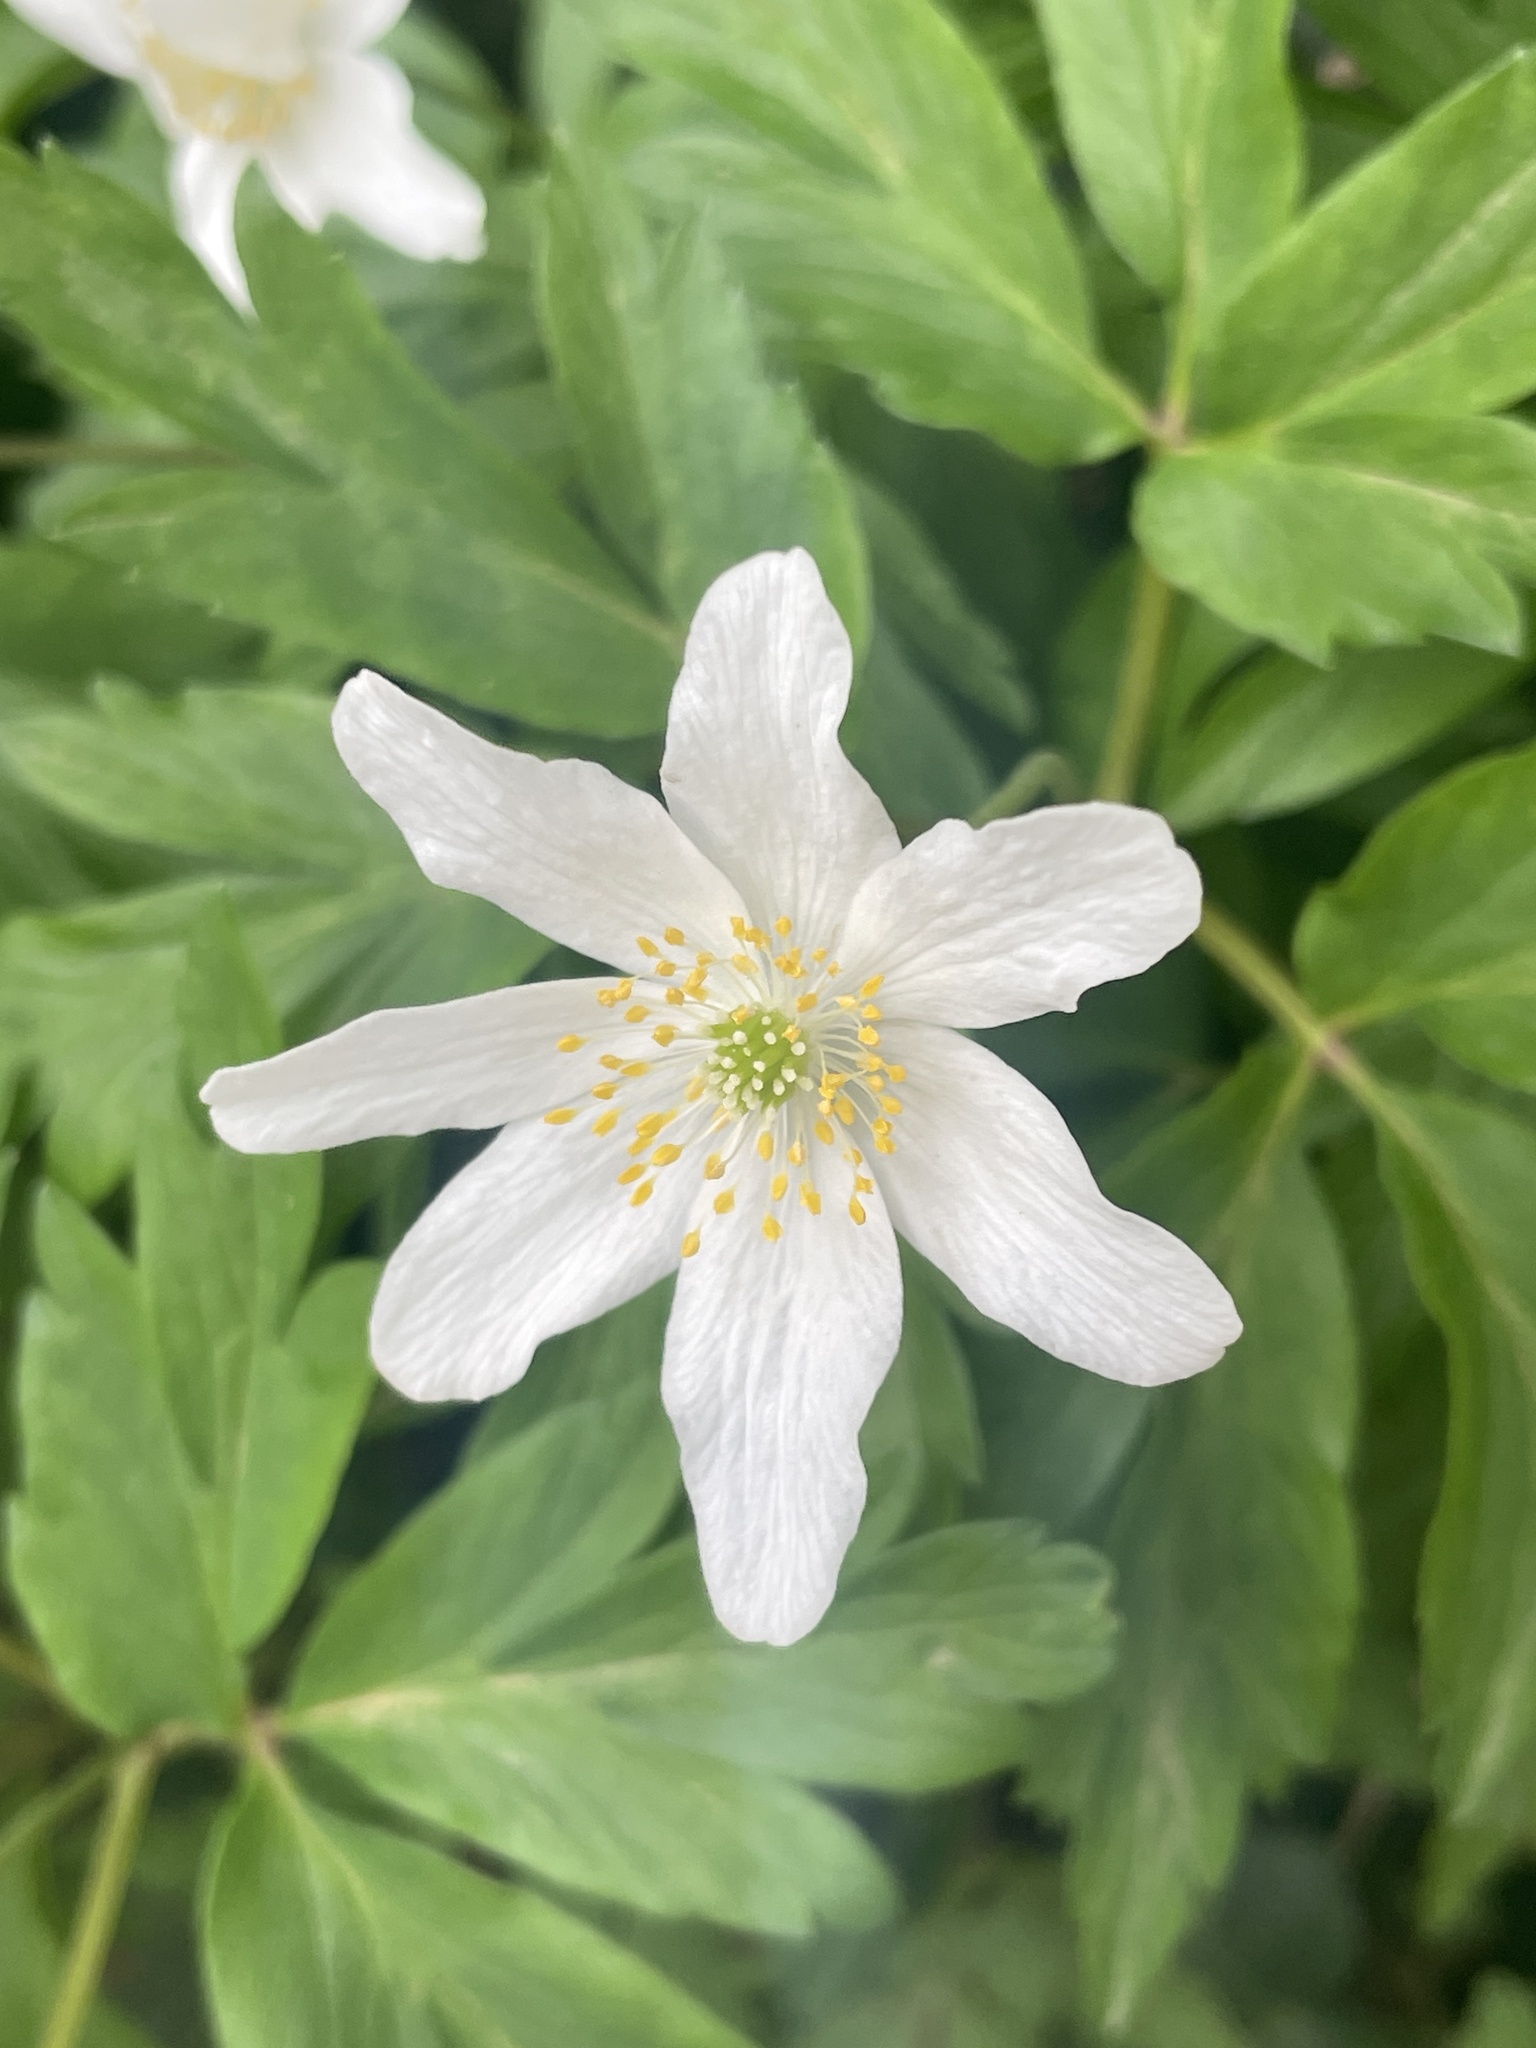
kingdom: Plantae
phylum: Tracheophyta
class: Magnoliopsida
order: Ranunculales
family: Ranunculaceae
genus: Anemone
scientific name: Anemone nemorosa
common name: Wood anemone
